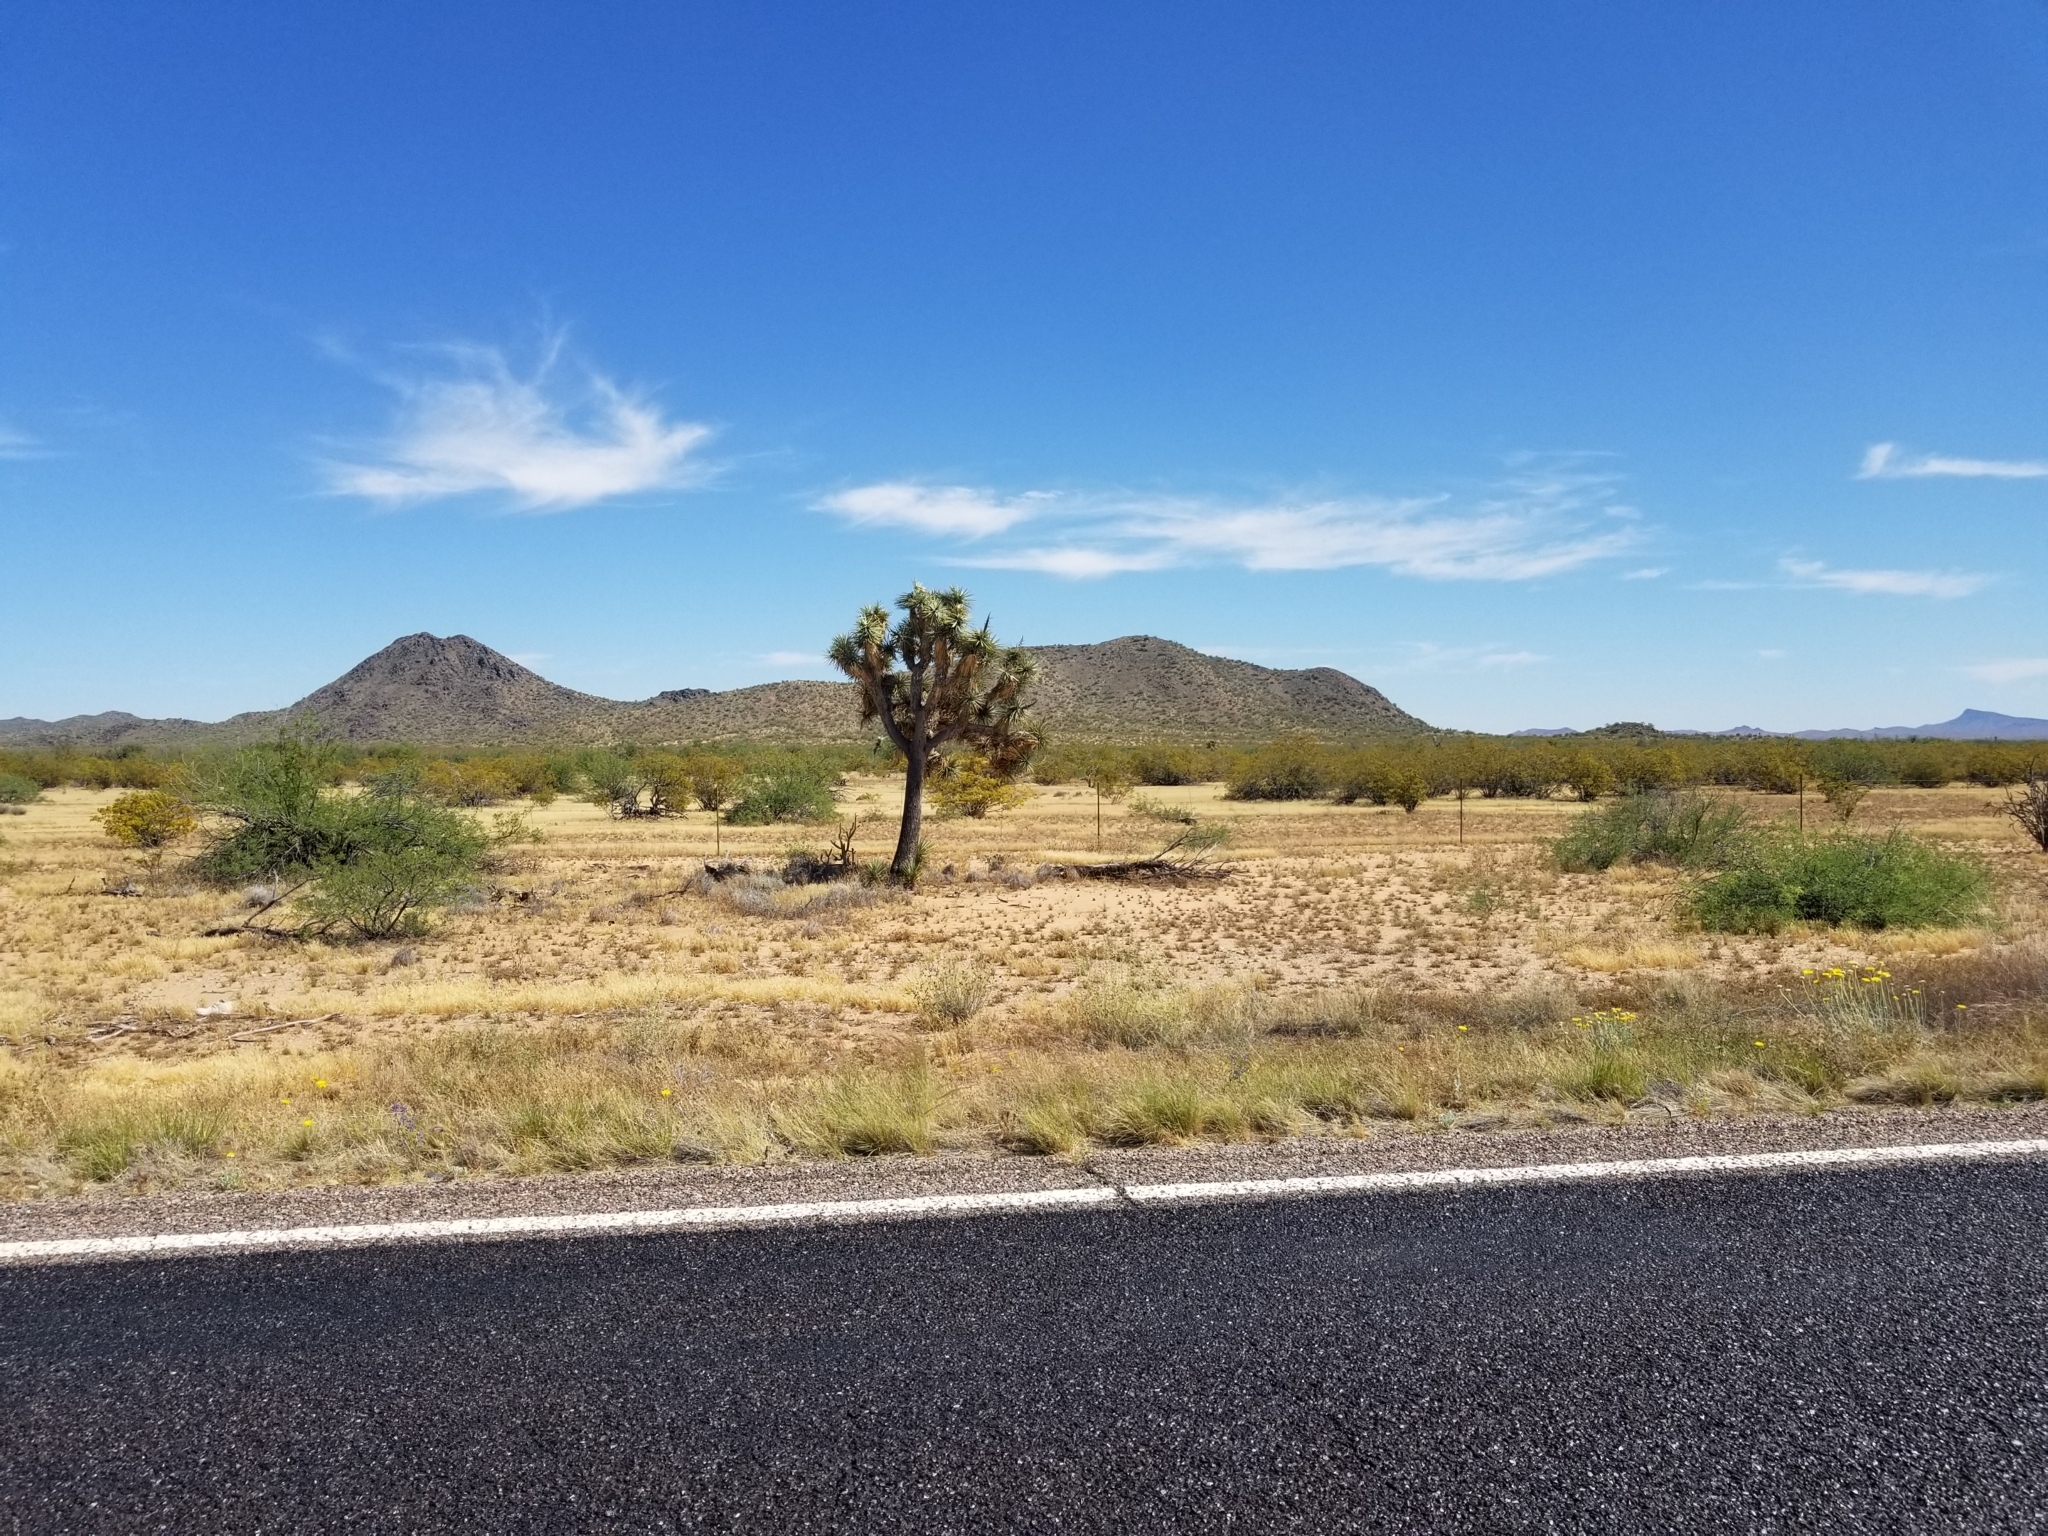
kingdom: Plantae
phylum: Tracheophyta
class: Liliopsida
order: Asparagales
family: Asparagaceae
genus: Yucca
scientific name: Yucca brevifolia
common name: Joshua tree
